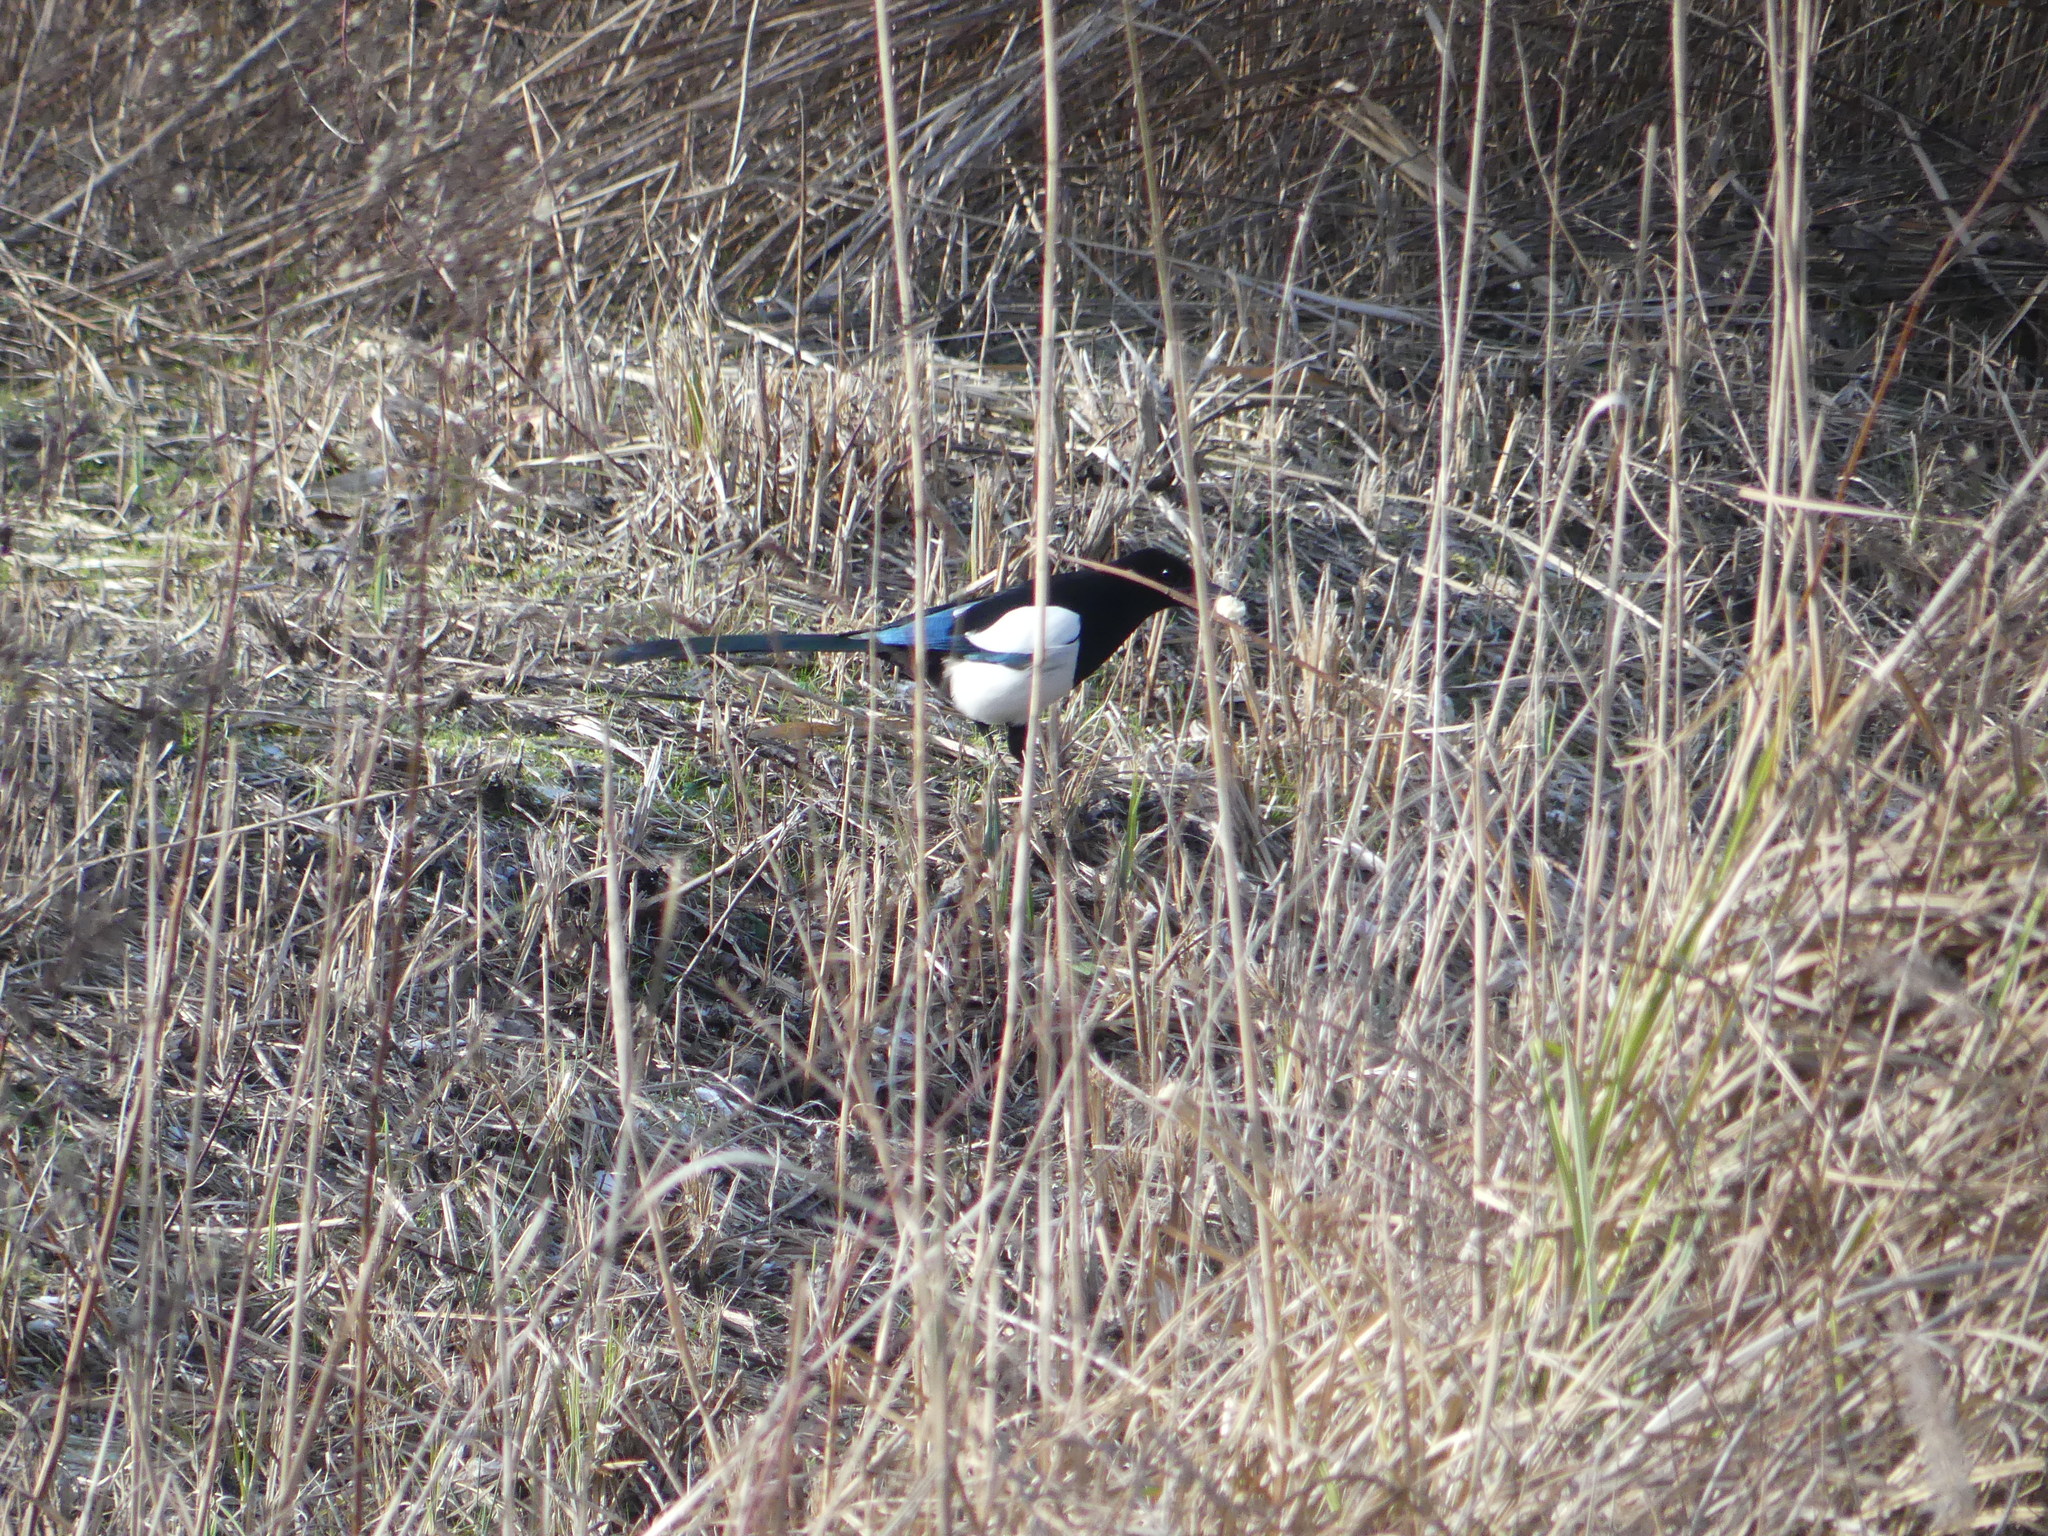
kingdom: Animalia
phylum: Chordata
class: Aves
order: Passeriformes
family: Corvidae
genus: Pica
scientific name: Pica pica
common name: Eurasian magpie
